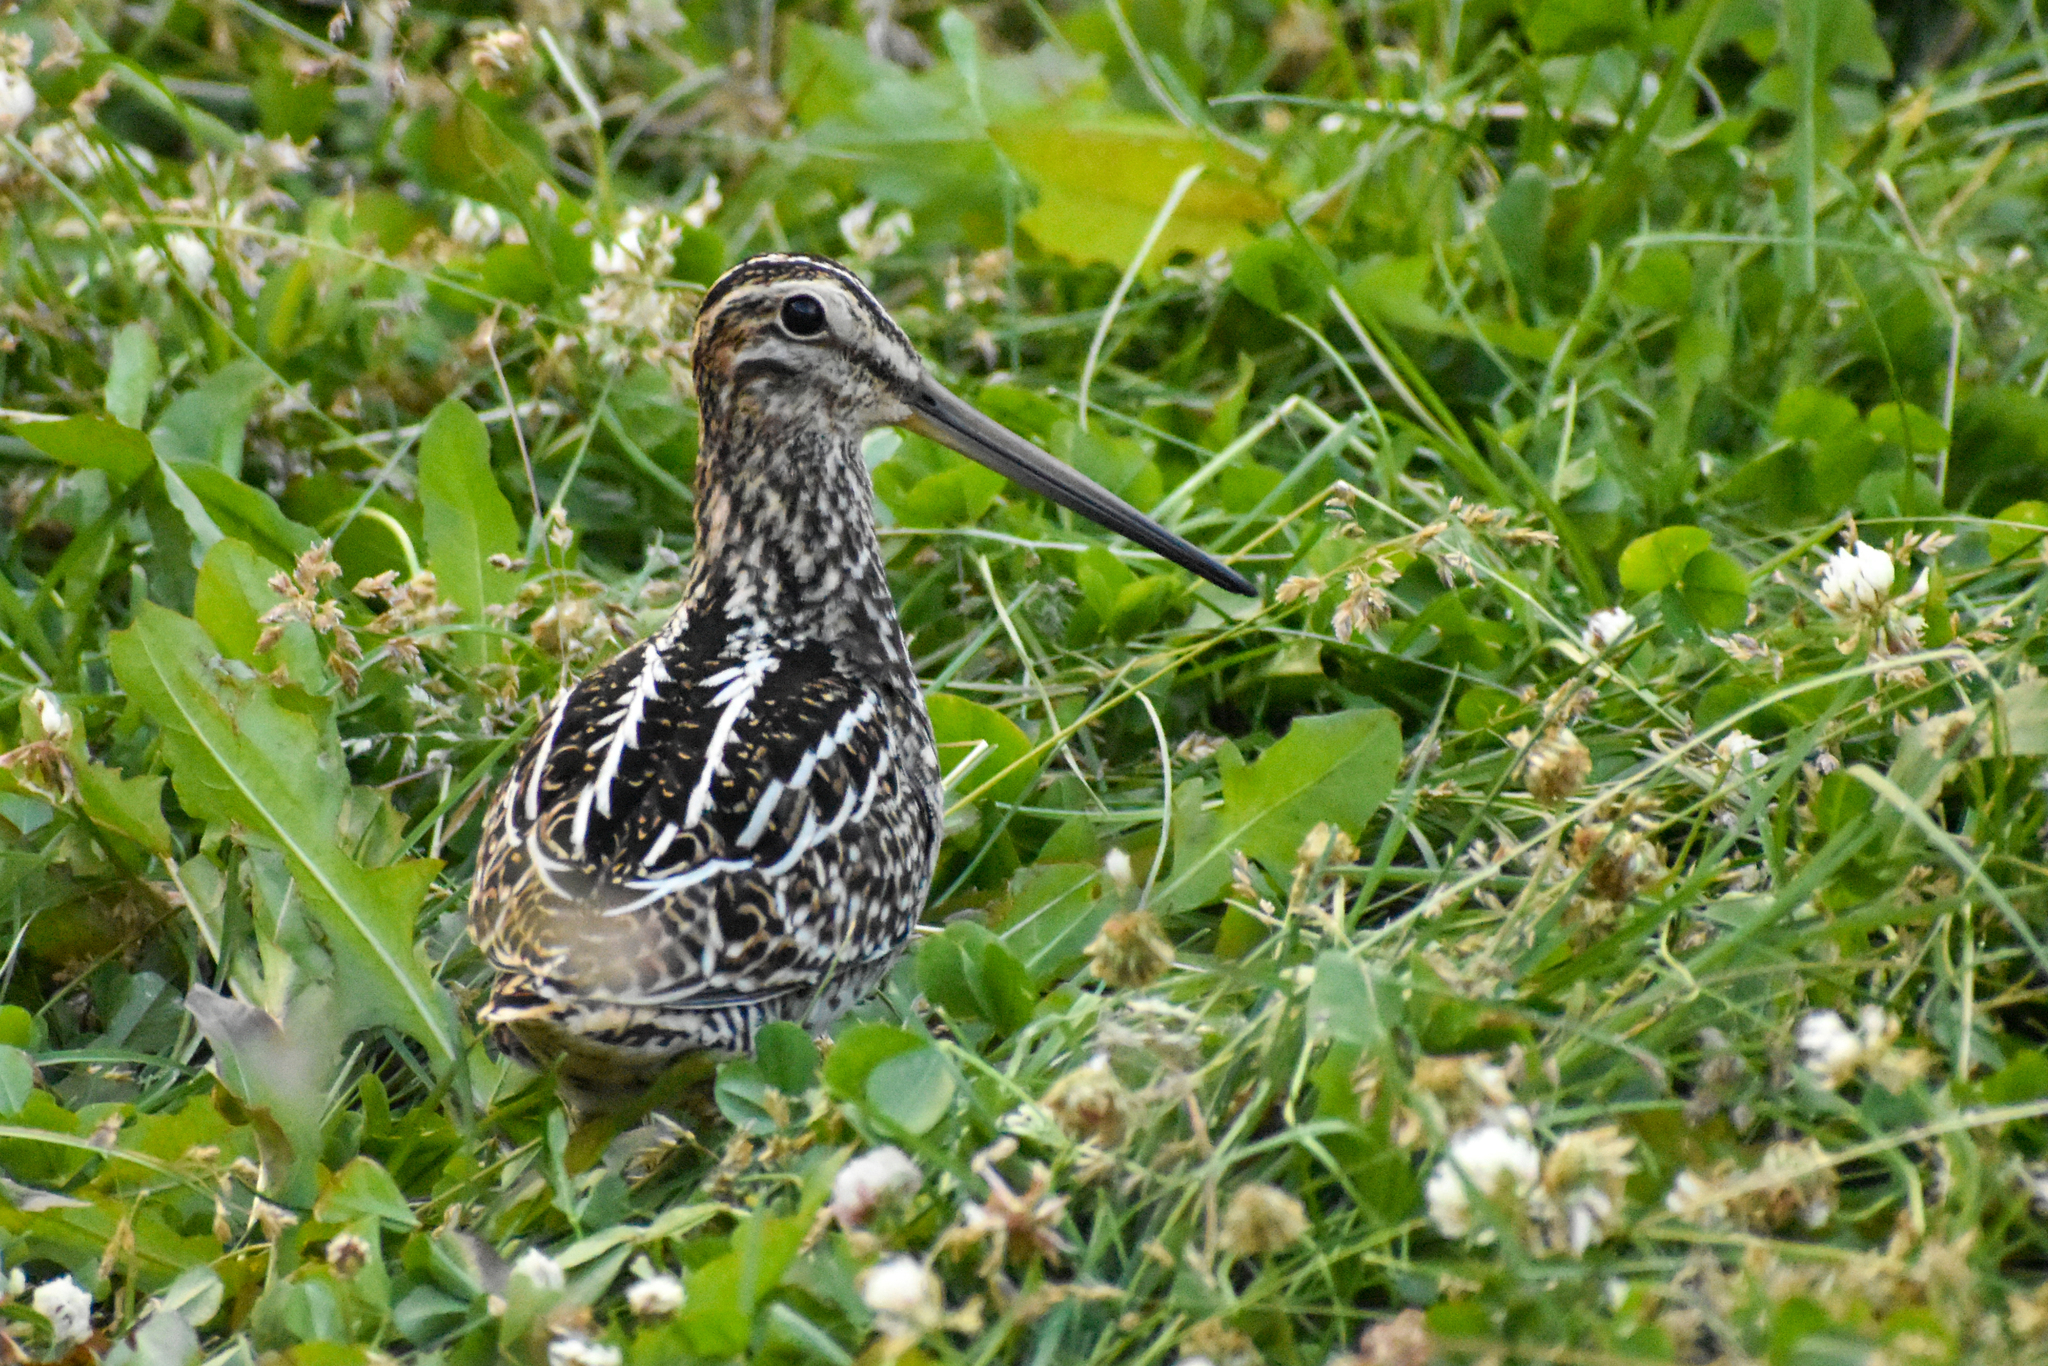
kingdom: Animalia
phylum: Chordata
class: Aves
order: Charadriiformes
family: Scolopacidae
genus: Gallinago
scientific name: Gallinago magellanica
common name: Magellanic snipe
